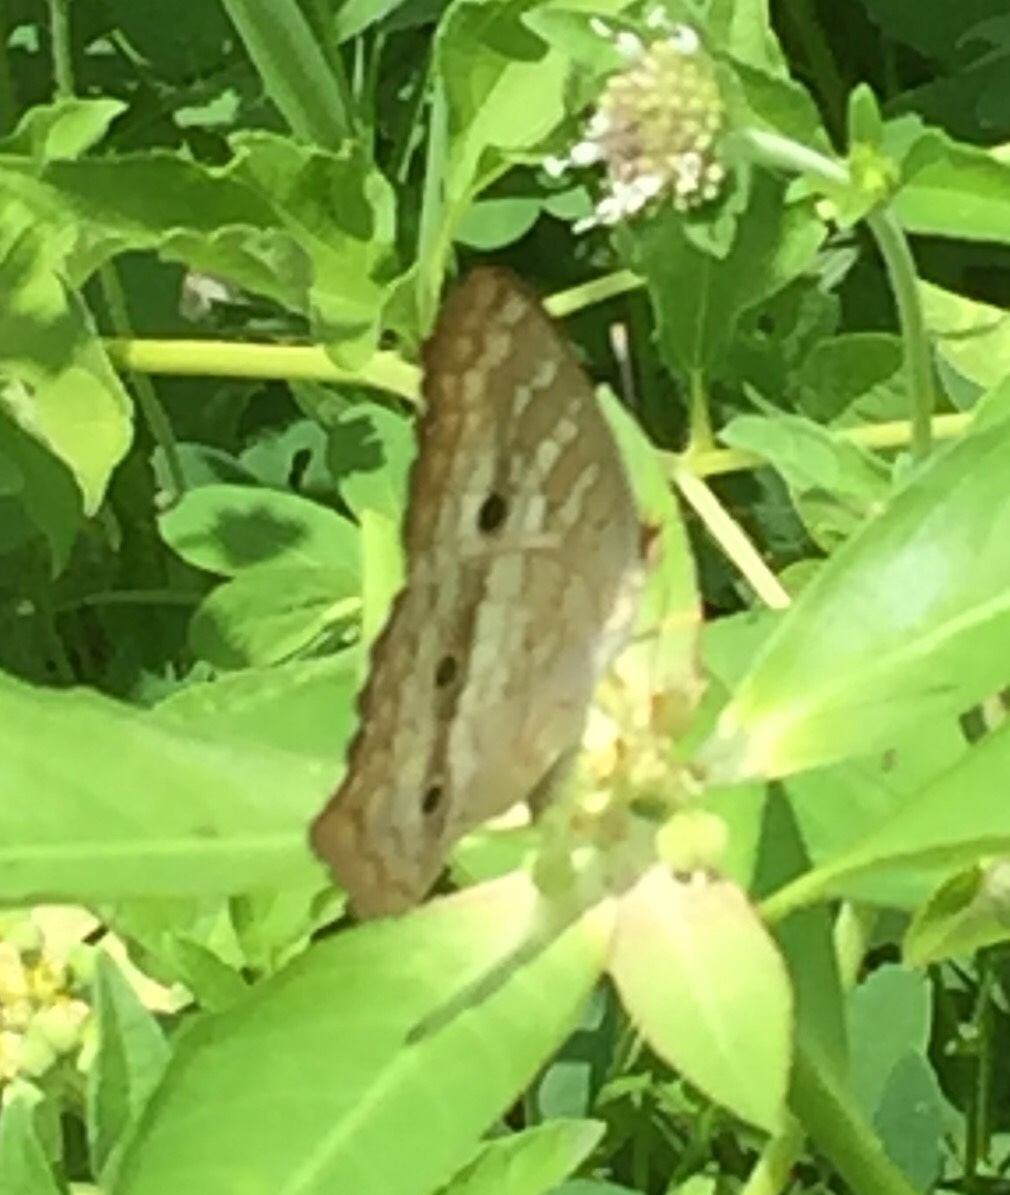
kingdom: Animalia
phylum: Arthropoda
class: Insecta
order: Lepidoptera
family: Nymphalidae
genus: Anartia
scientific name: Anartia jatrophae
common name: White peacock
